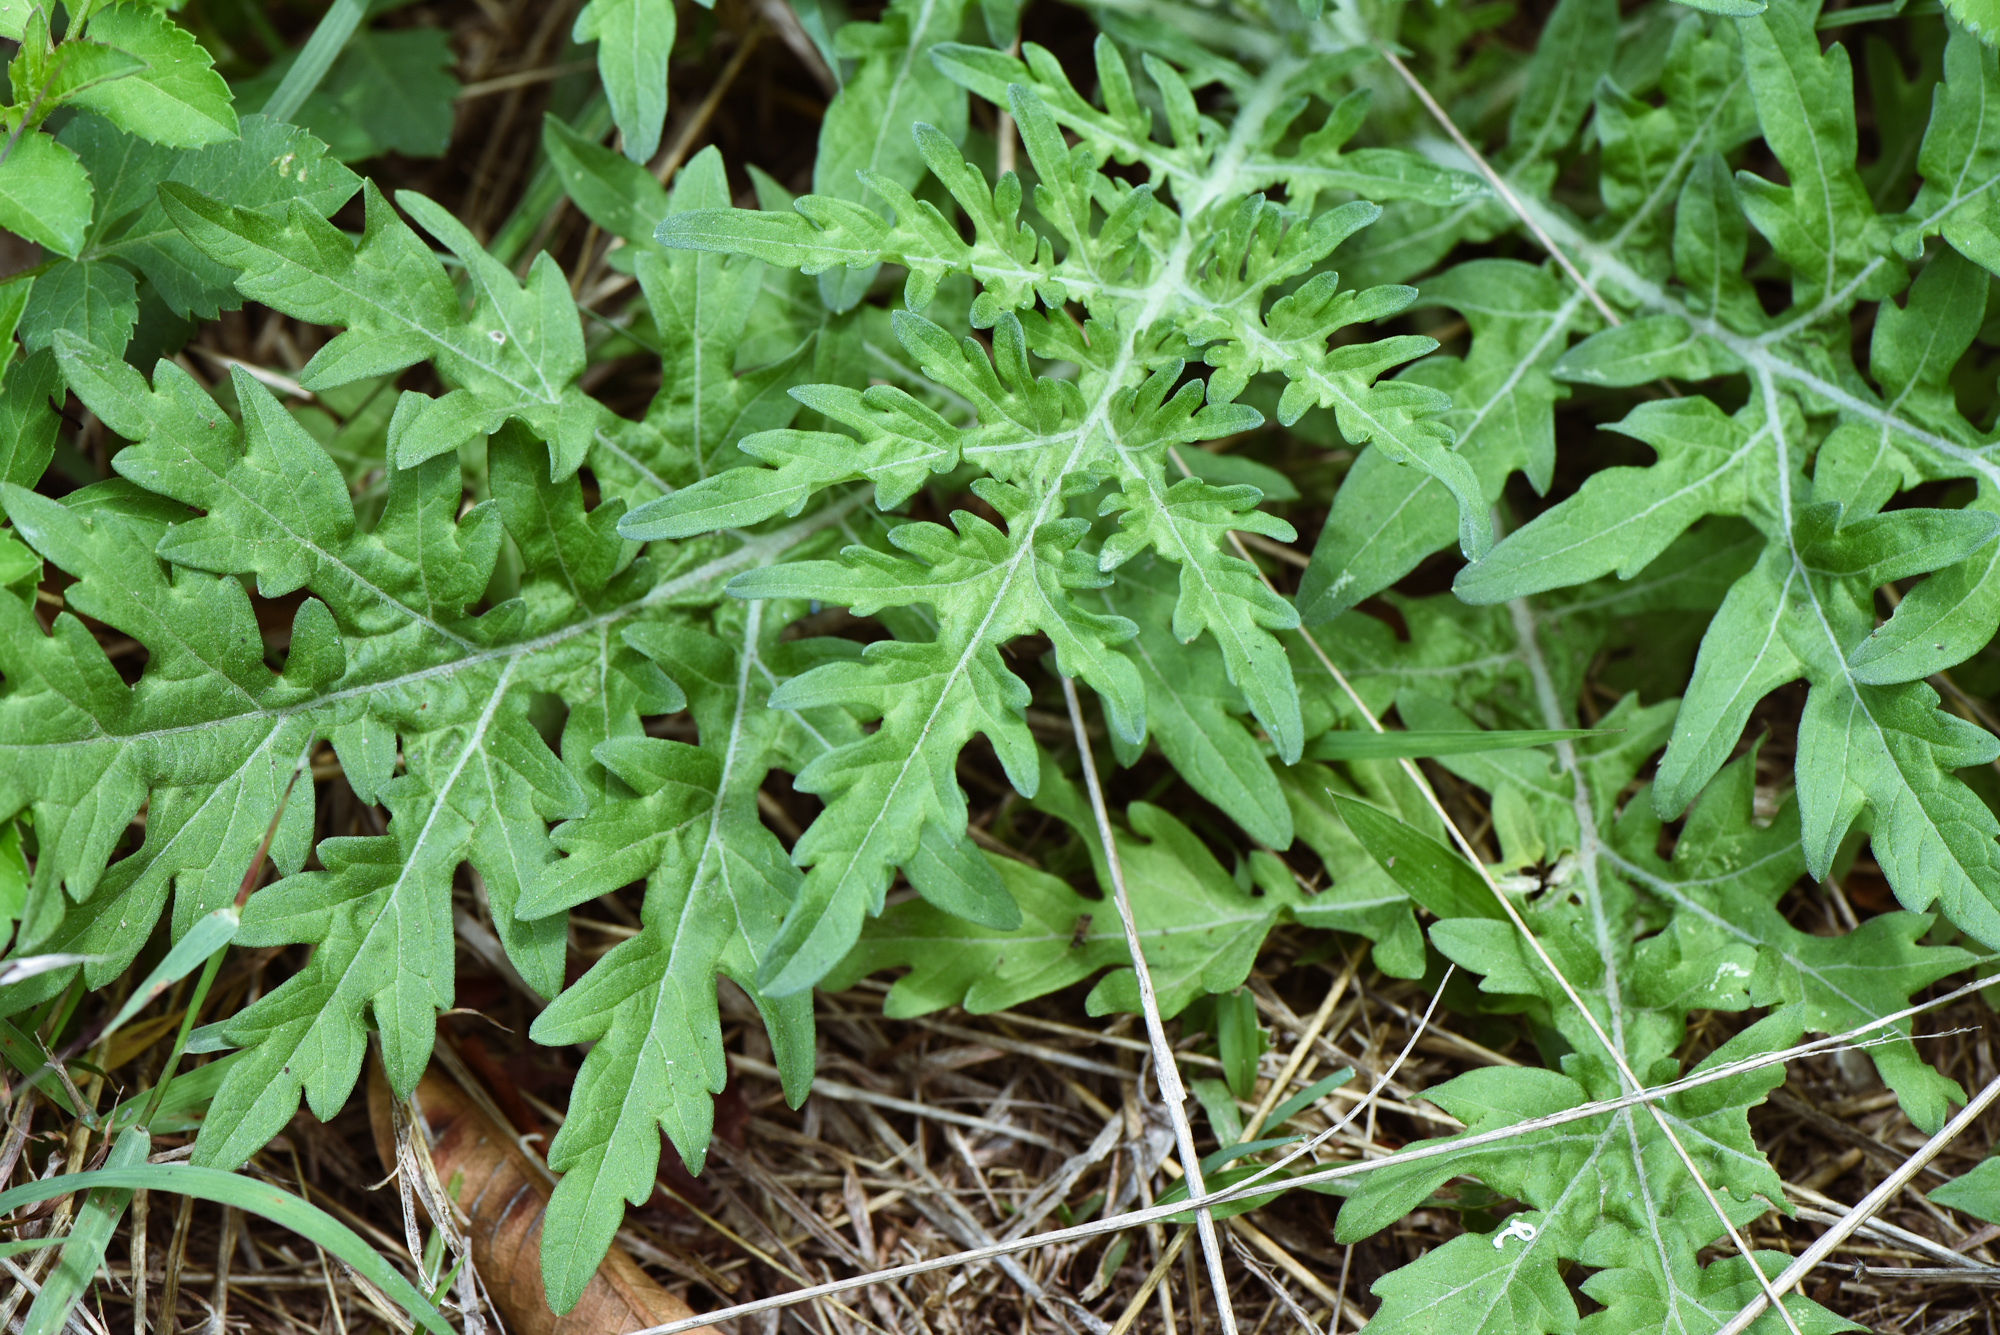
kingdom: Plantae
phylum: Tracheophyta
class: Magnoliopsida
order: Asterales
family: Asteraceae
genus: Parthenium
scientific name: Parthenium hysterophorus
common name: Santa maria feverfew
